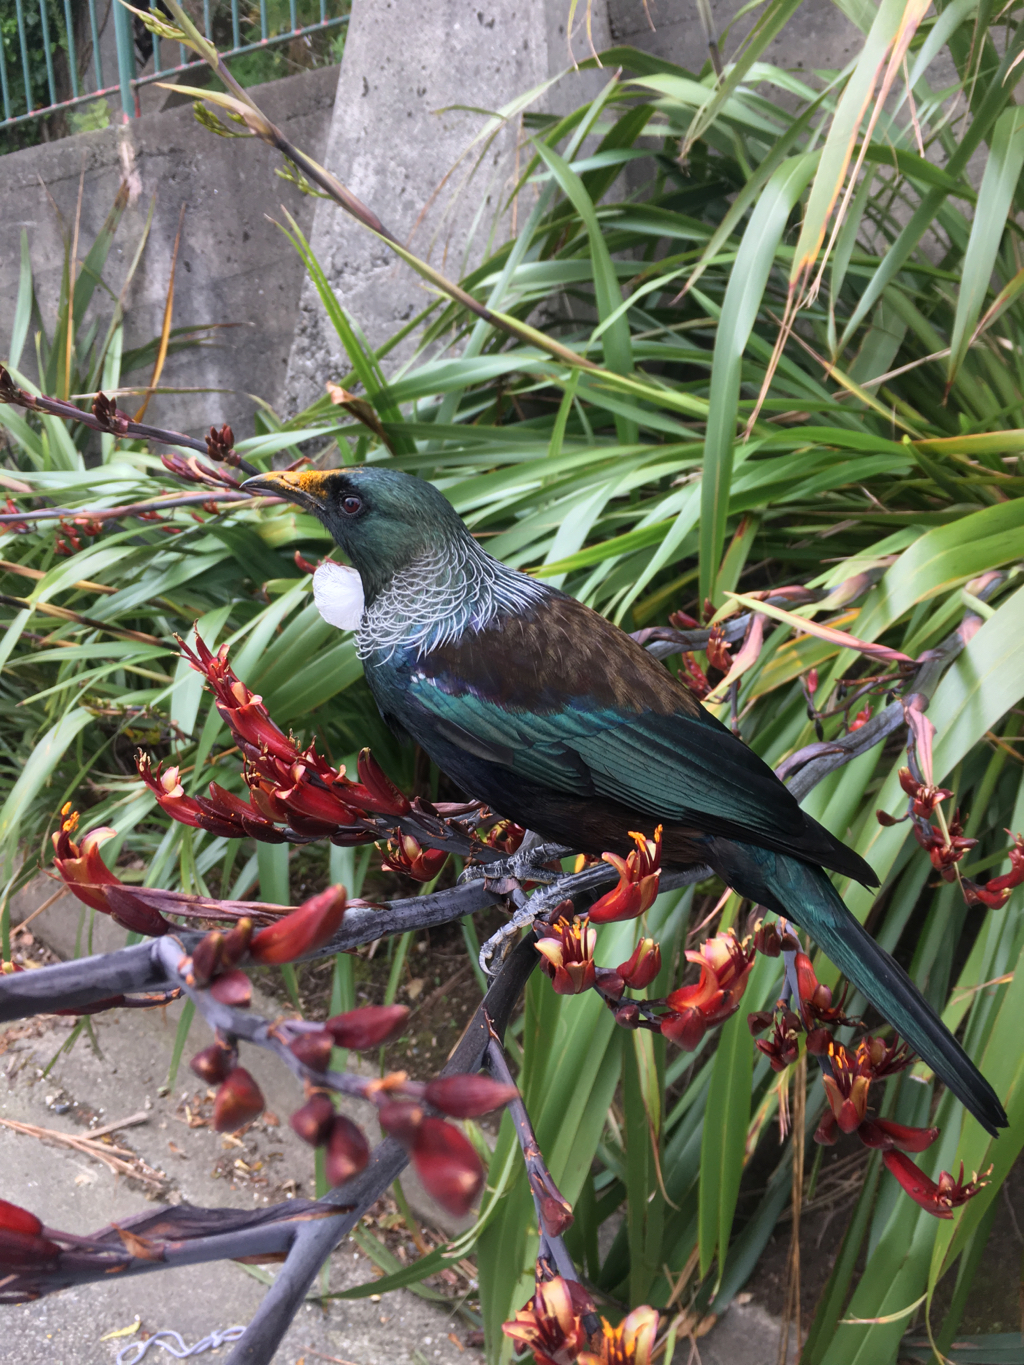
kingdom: Animalia
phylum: Chordata
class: Aves
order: Passeriformes
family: Meliphagidae
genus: Prosthemadera
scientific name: Prosthemadera novaeseelandiae
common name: Tui
